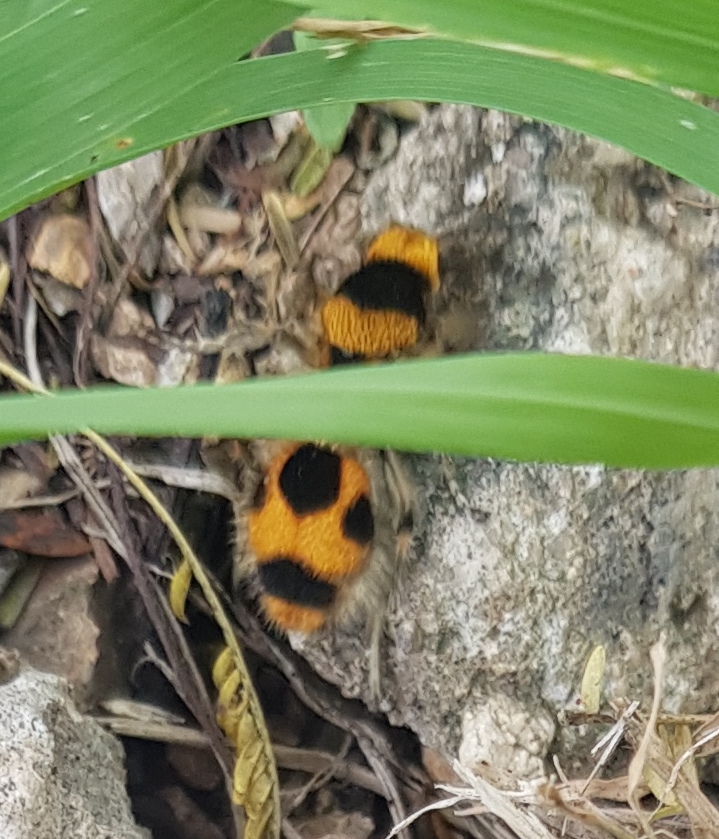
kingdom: Animalia
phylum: Arthropoda
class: Insecta
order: Hymenoptera
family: Mutillidae
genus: Dasymutilla
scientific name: Dasymutilla pulchra
